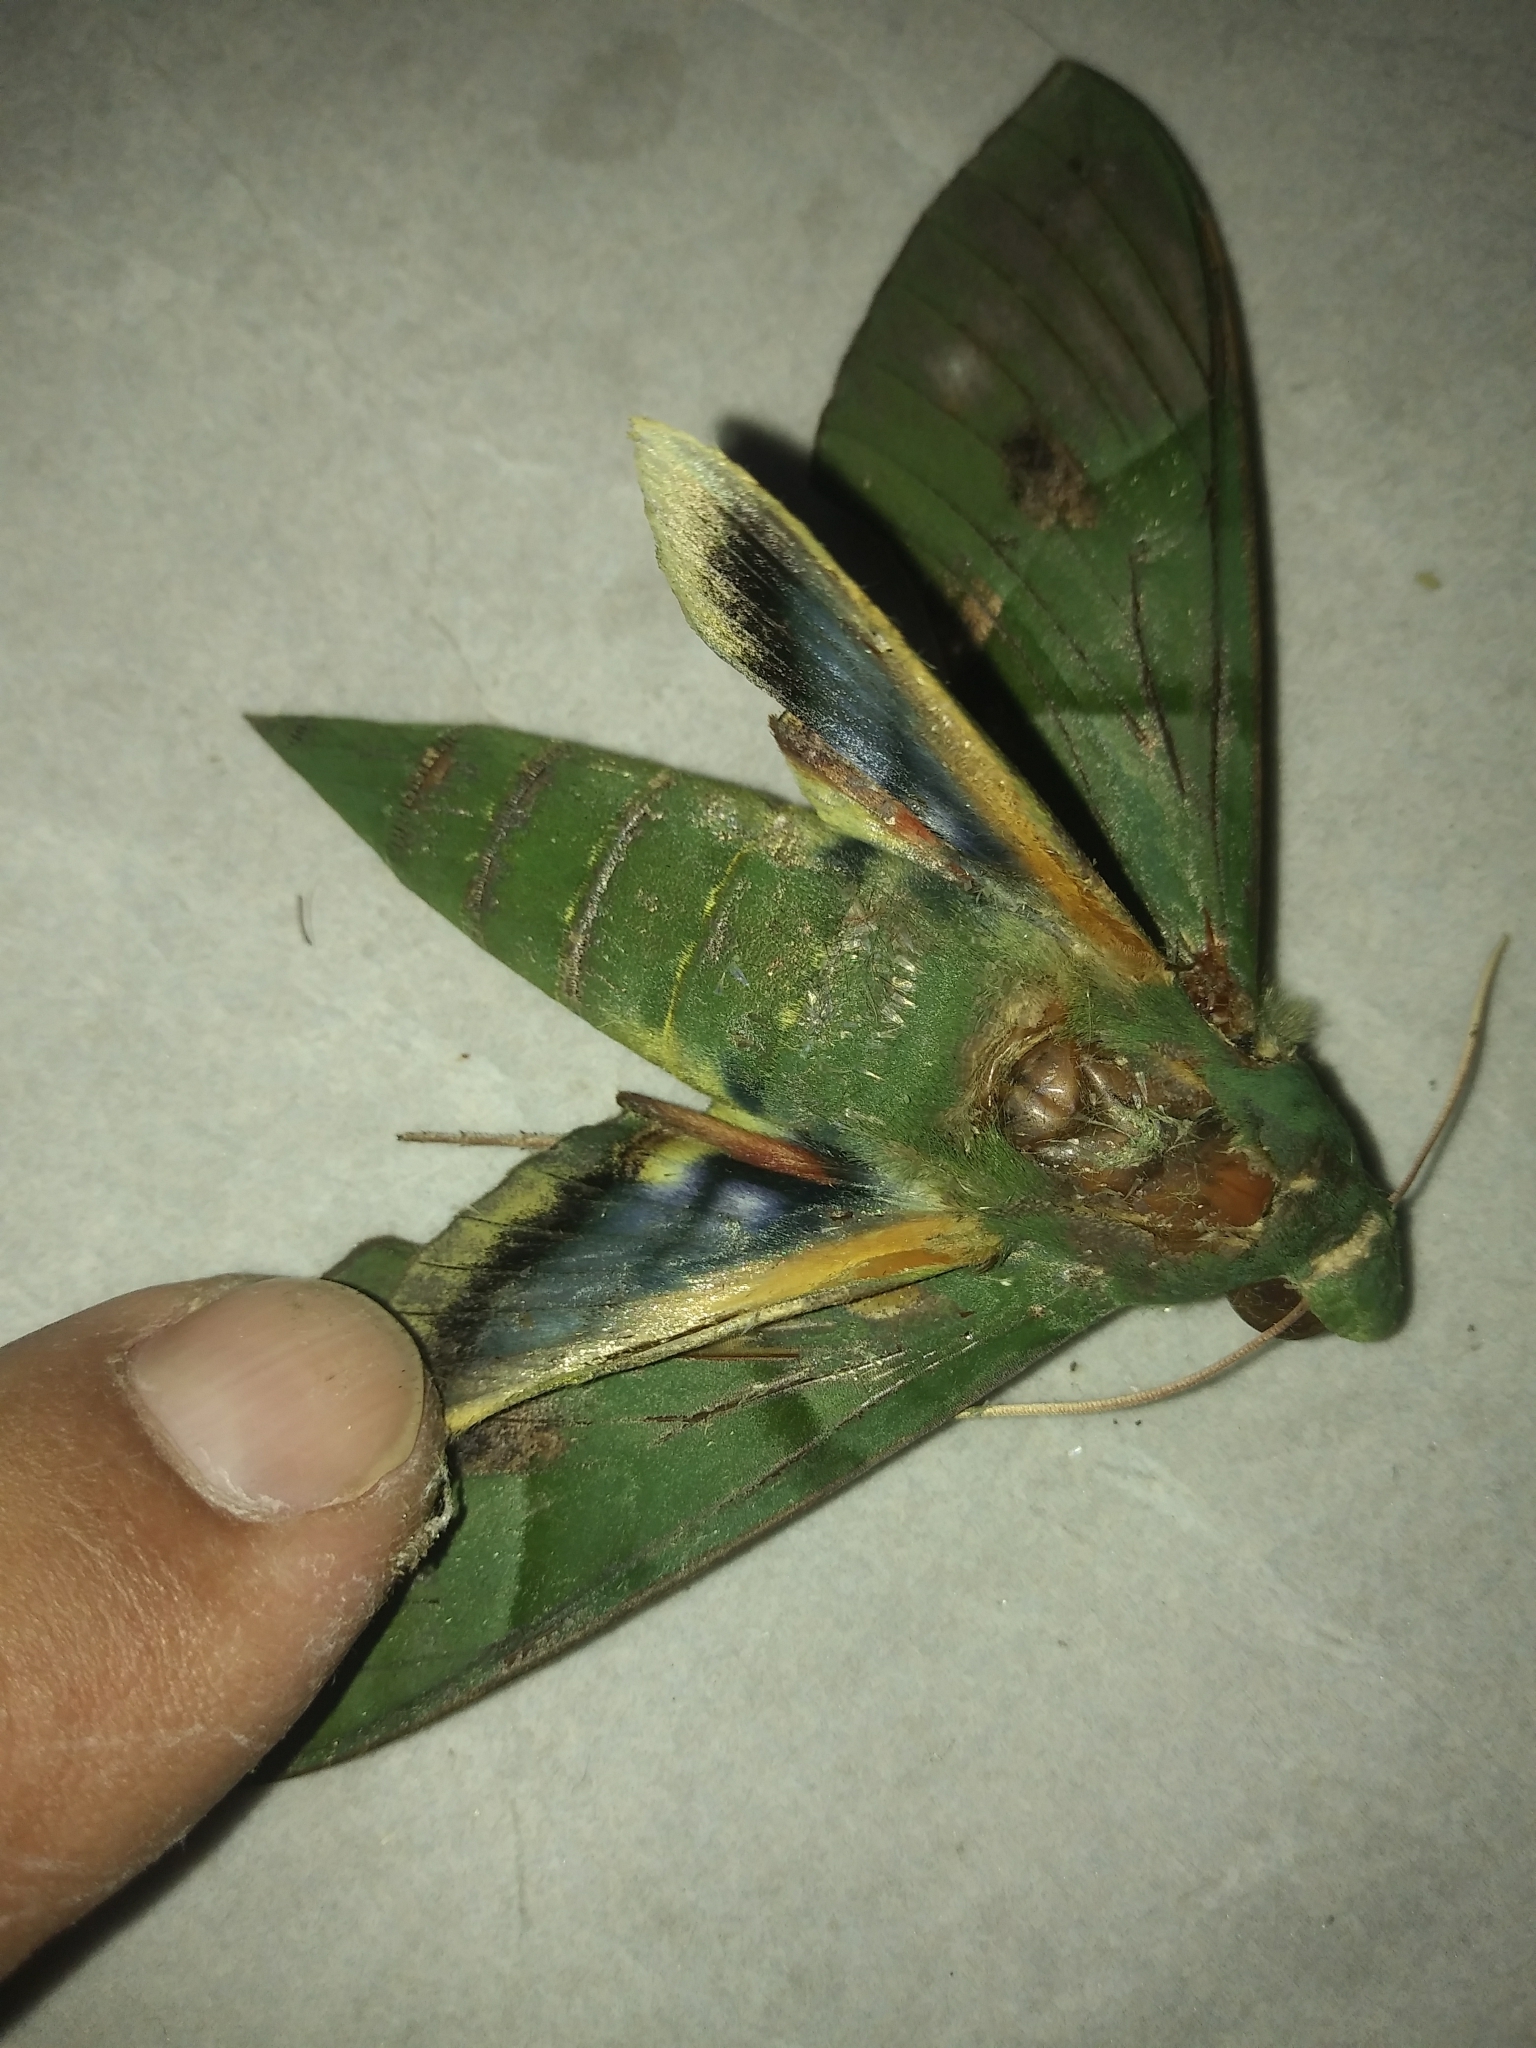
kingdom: Animalia
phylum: Arthropoda
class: Insecta
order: Lepidoptera
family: Sphingidae
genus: Eumorpha
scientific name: Eumorpha labruscae
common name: Gaudy sphinx
